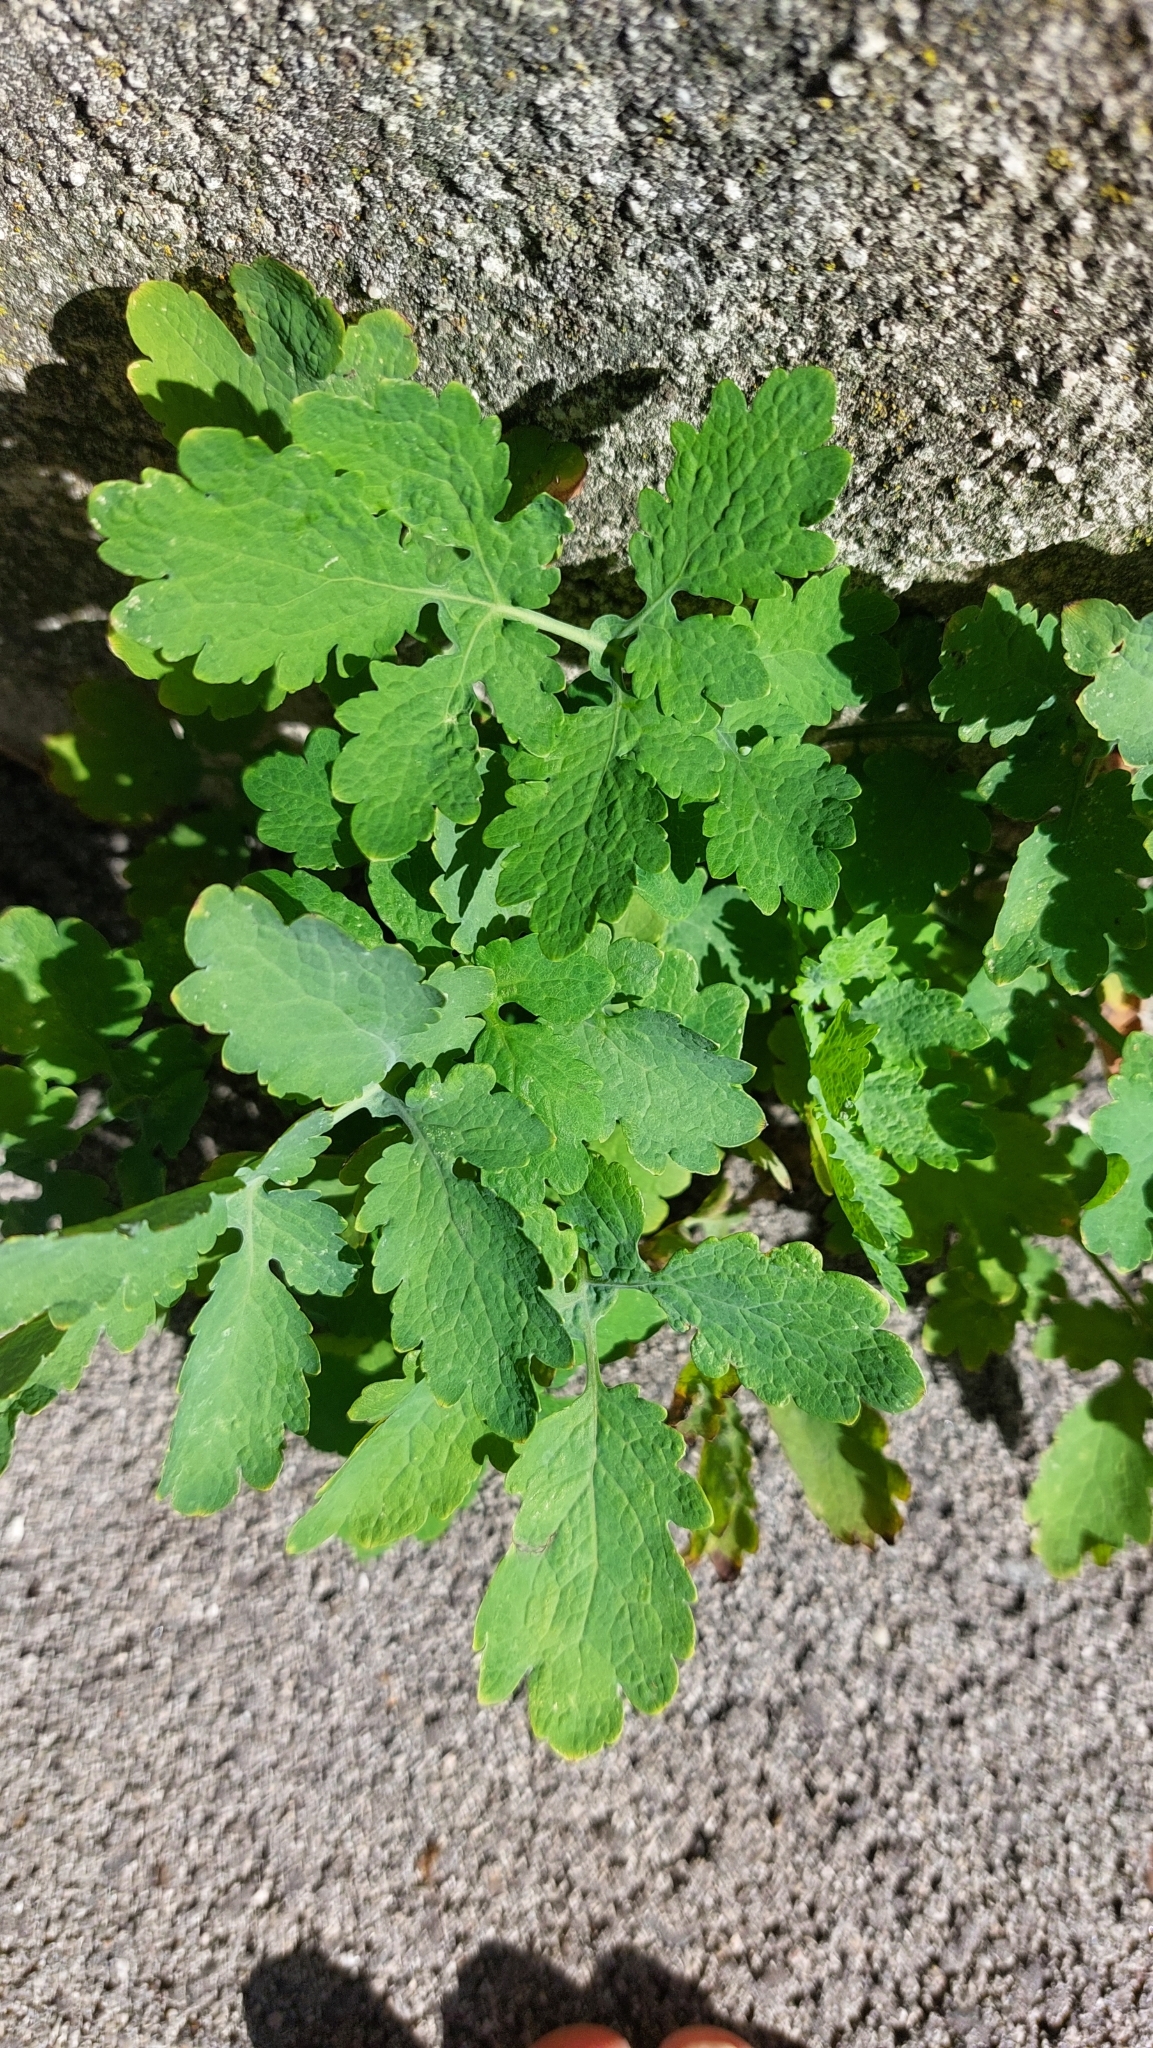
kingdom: Plantae
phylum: Tracheophyta
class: Magnoliopsida
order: Ranunculales
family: Papaveraceae
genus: Chelidonium
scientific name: Chelidonium majus
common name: Greater celandine
